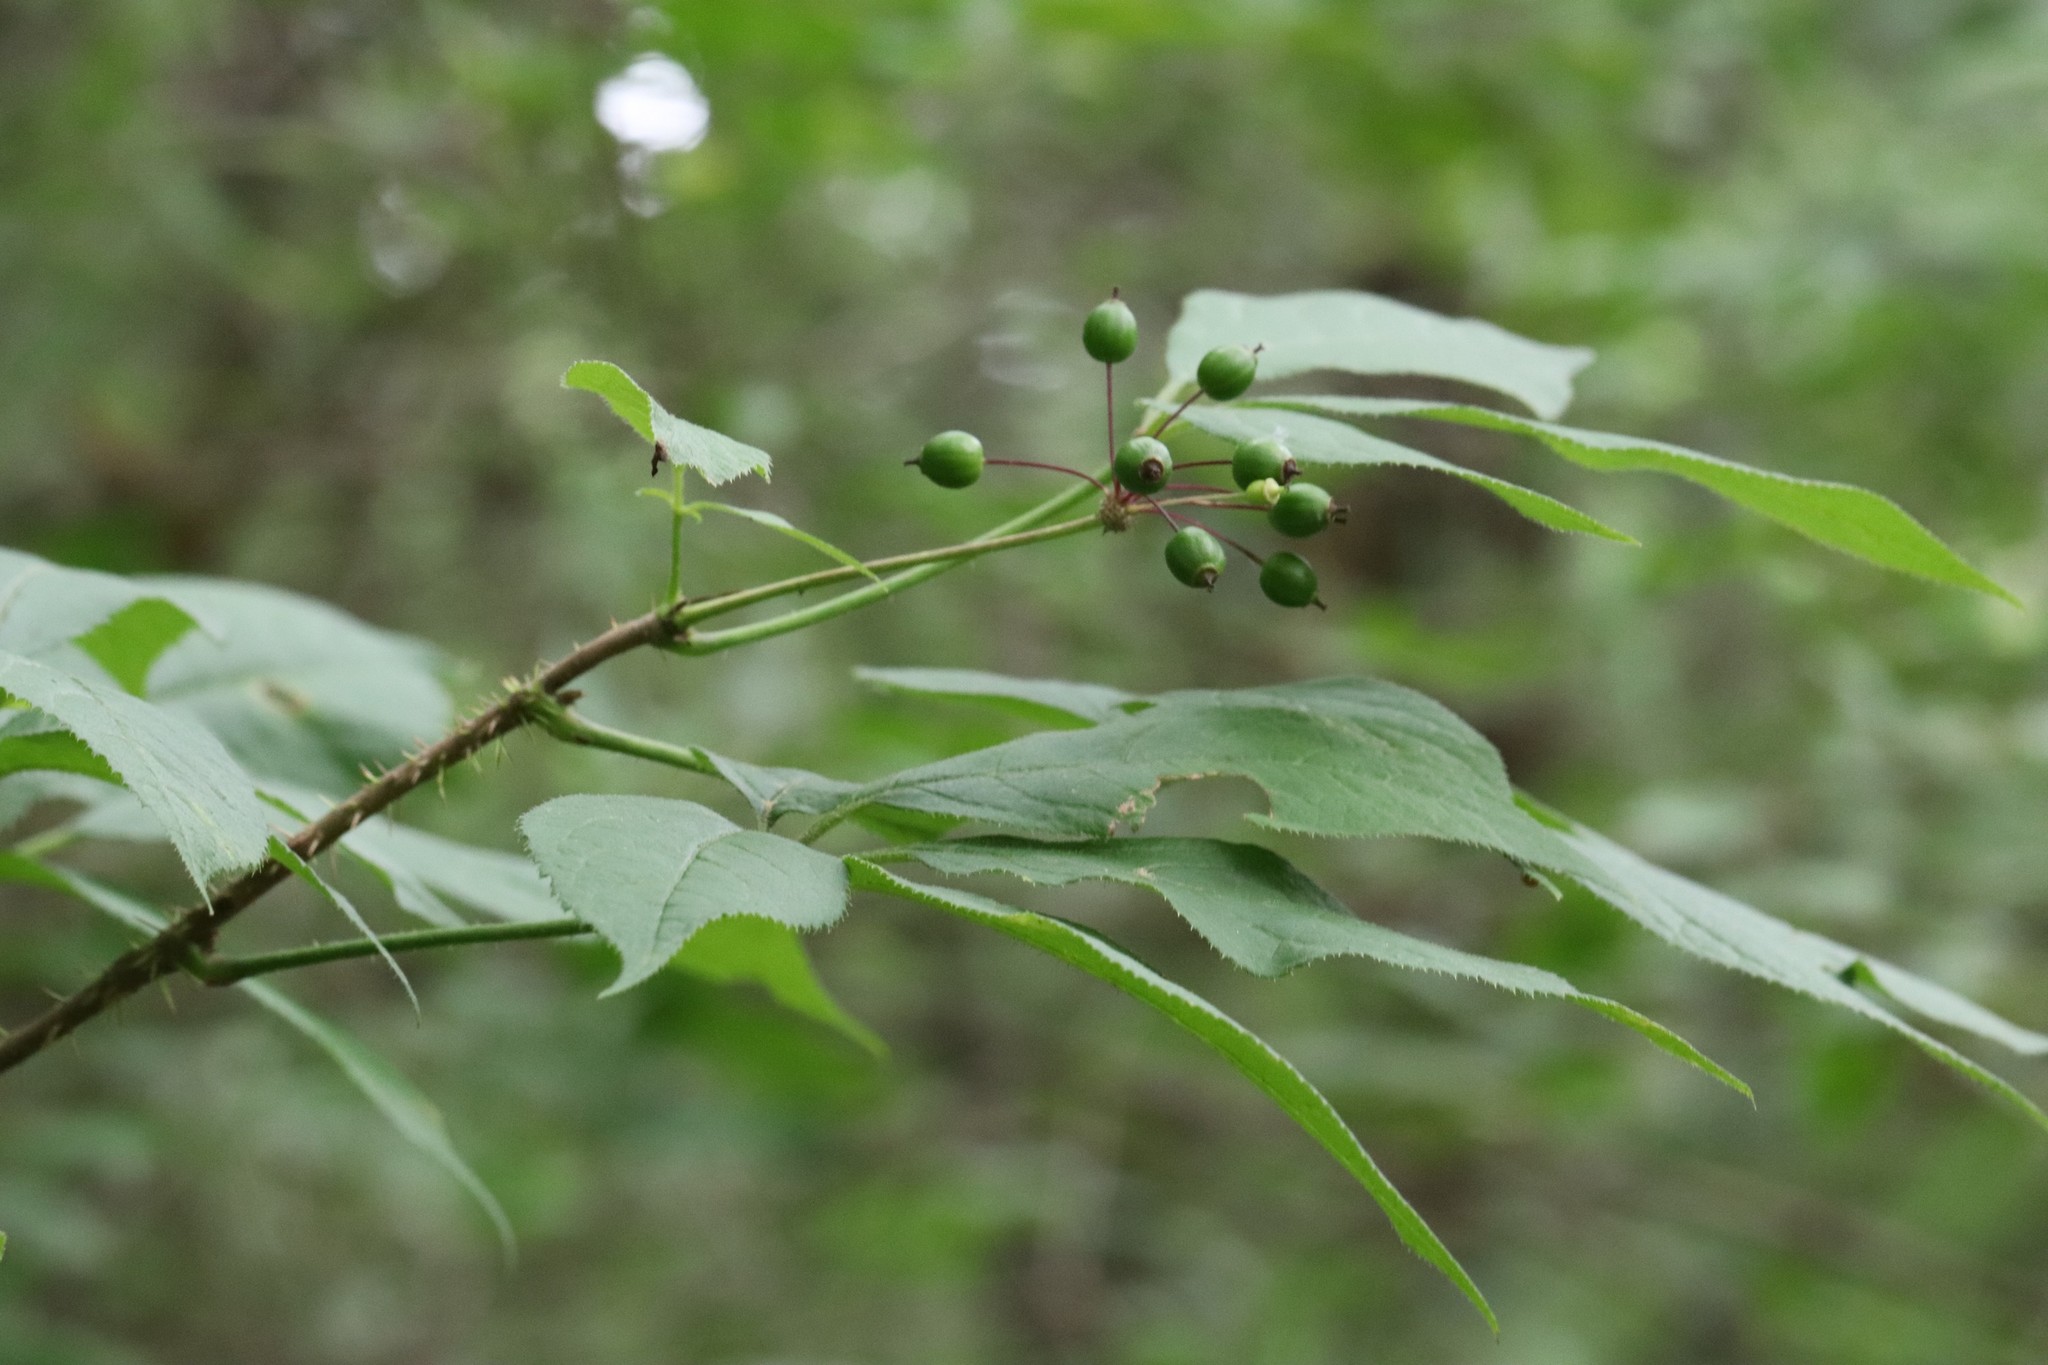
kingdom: Plantae
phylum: Tracheophyta
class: Magnoliopsida
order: Apiales
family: Araliaceae
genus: Eleutherococcus
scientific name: Eleutherococcus senticosus
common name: Siberian-ginseng
